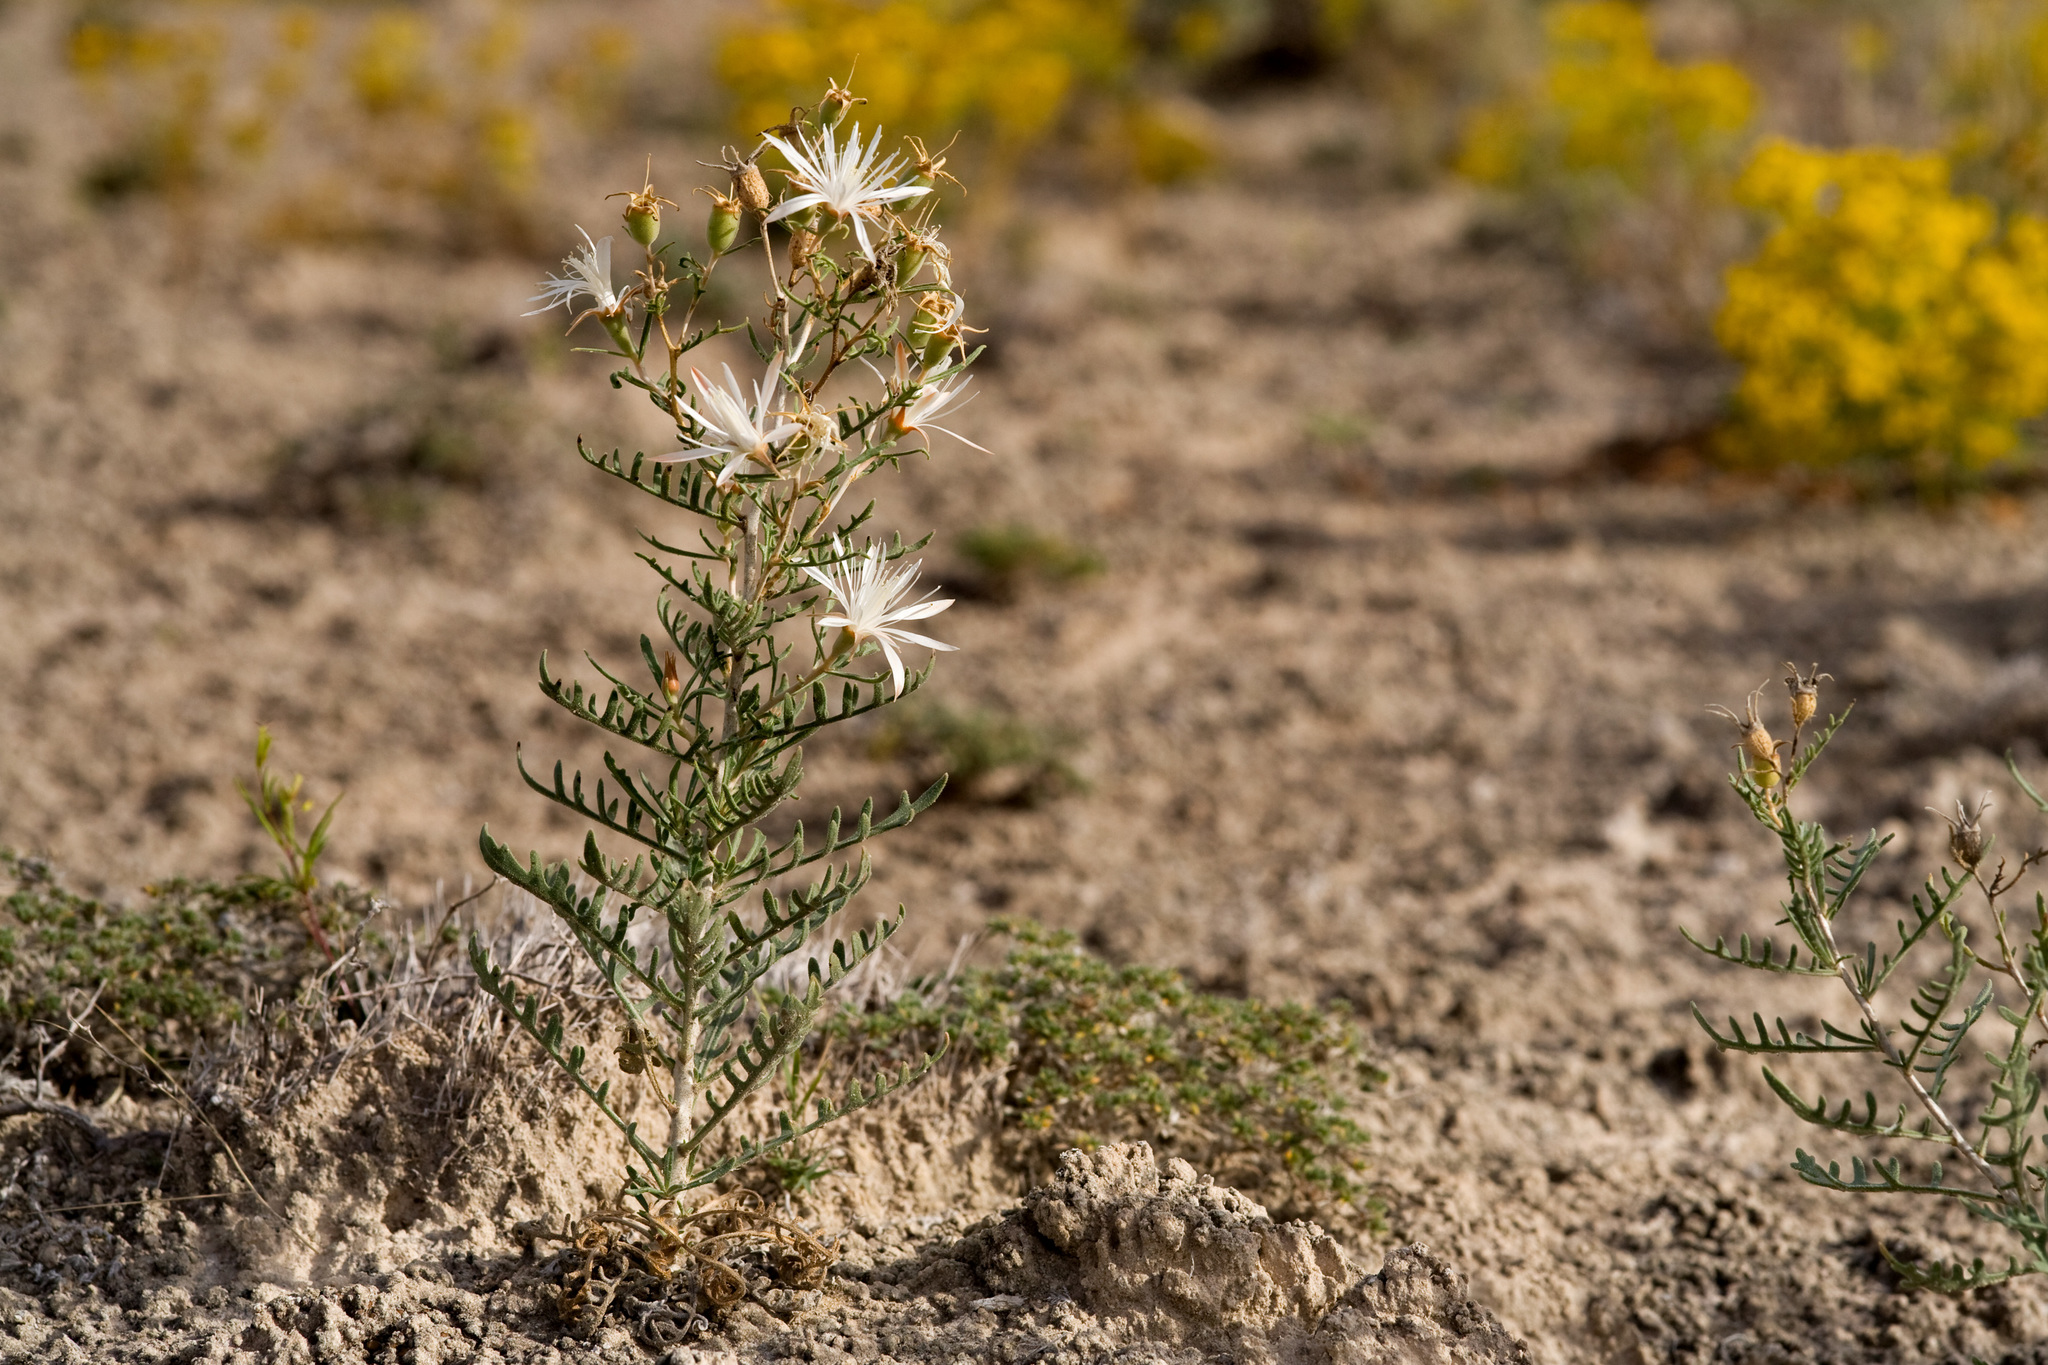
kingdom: Plantae
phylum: Tracheophyta
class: Magnoliopsida
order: Cornales
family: Loasaceae
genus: Mentzelia
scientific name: Mentzelia humilis
